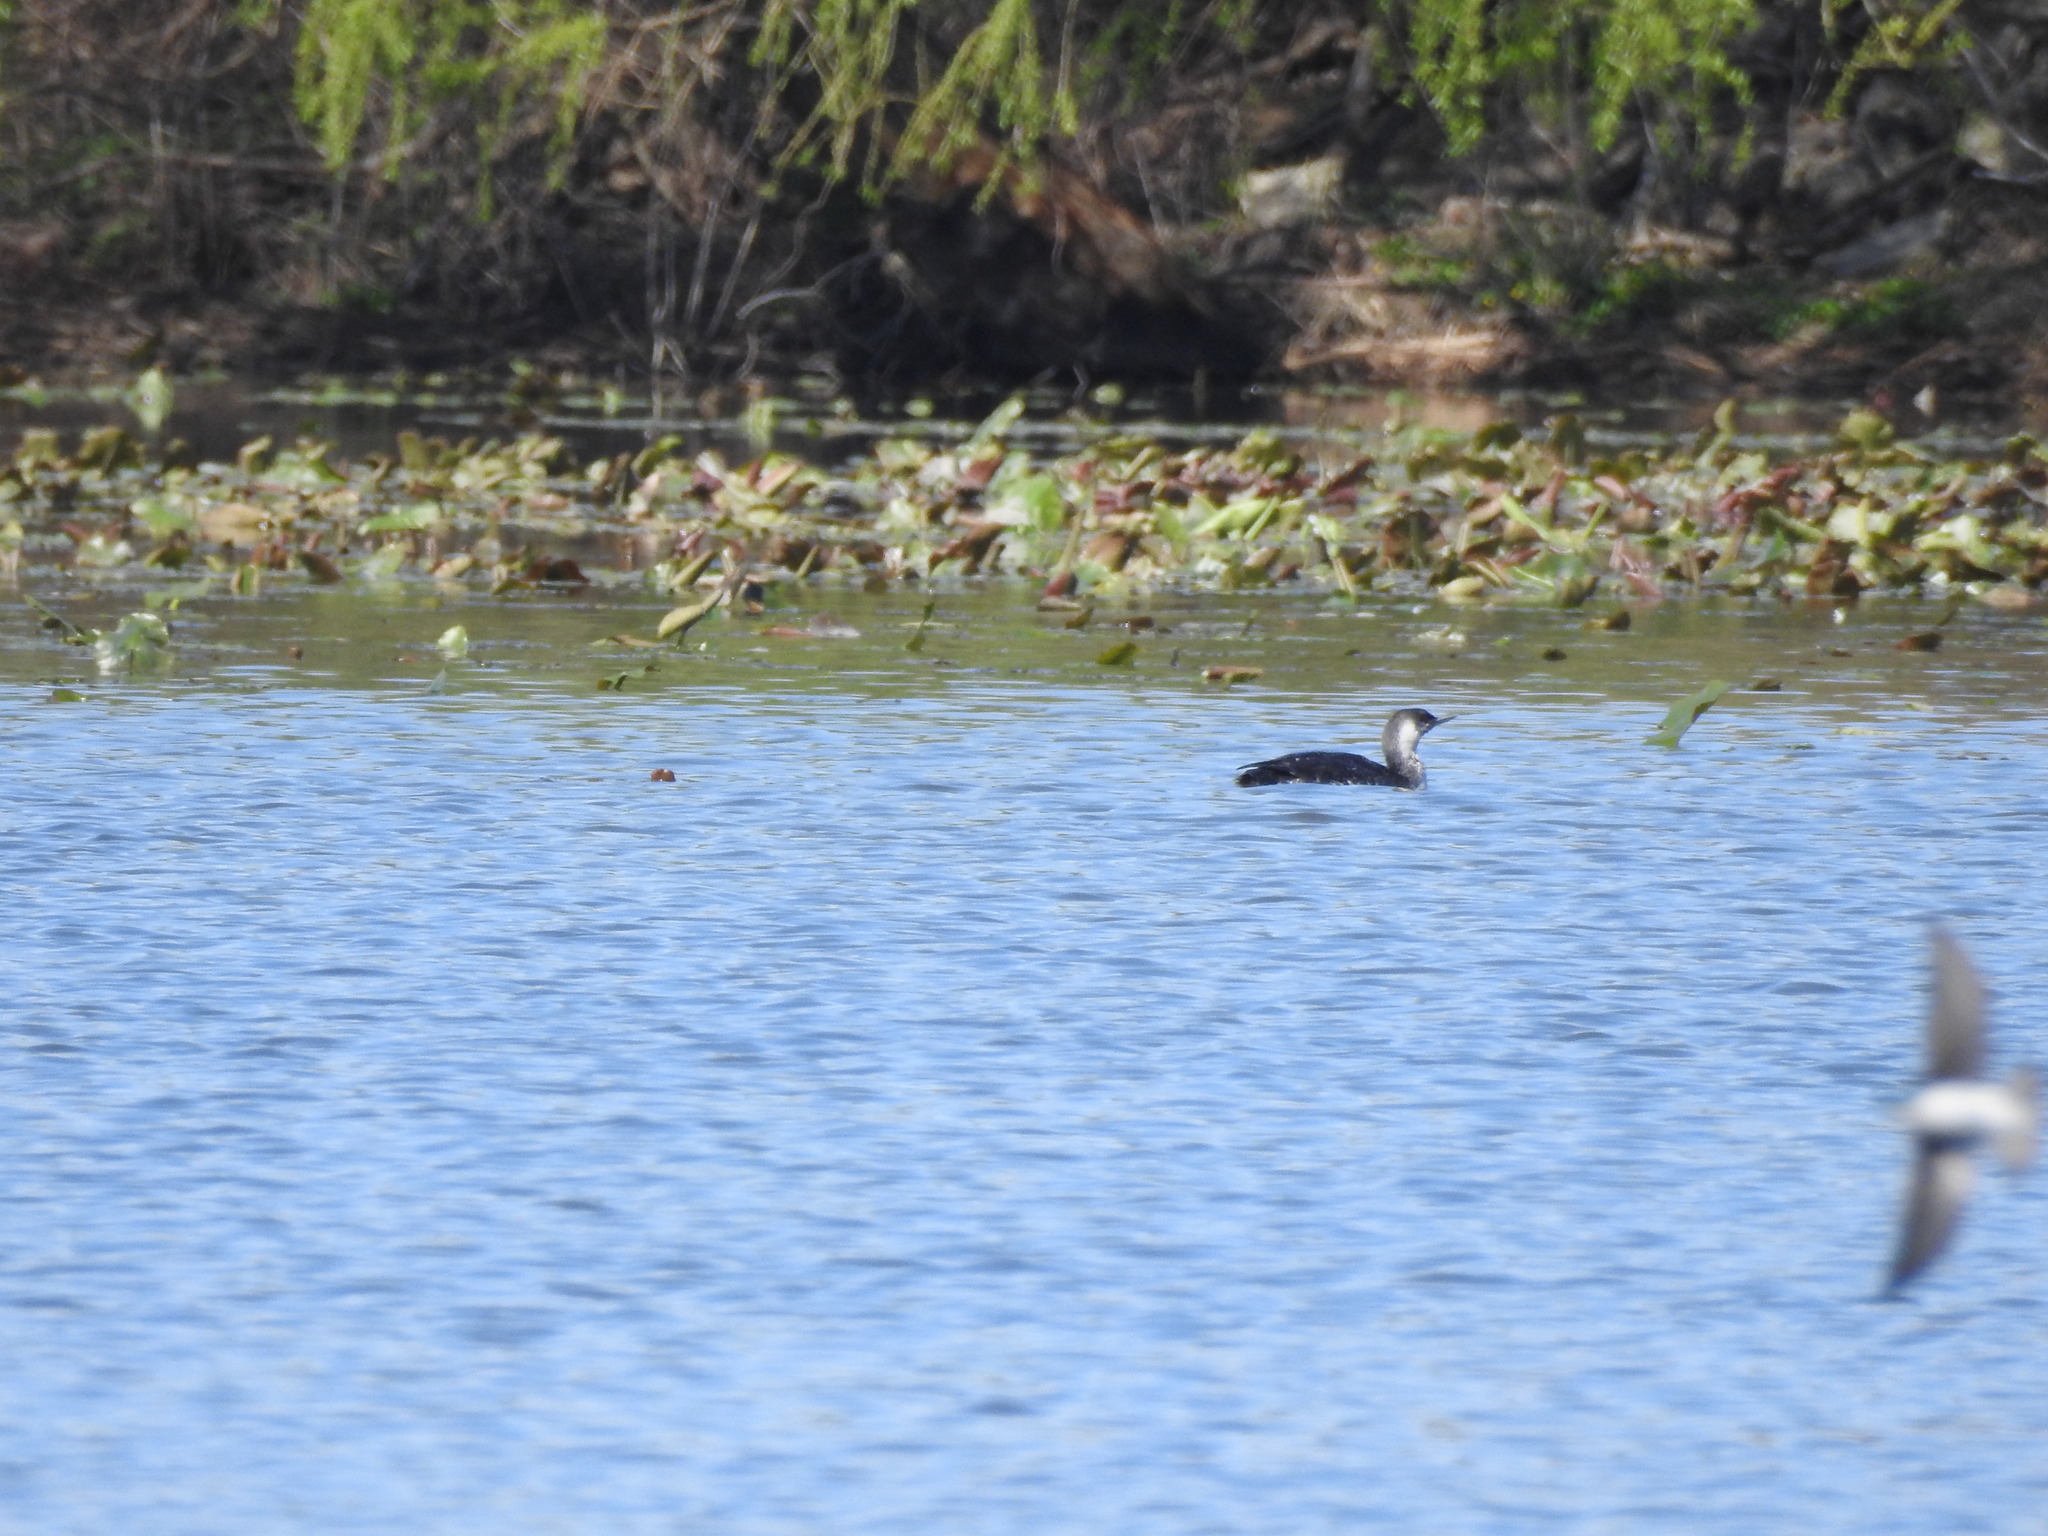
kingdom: Animalia
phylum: Chordata
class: Aves
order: Gaviiformes
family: Gaviidae
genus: Gavia
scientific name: Gavia stellata
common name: Red-throated loon
